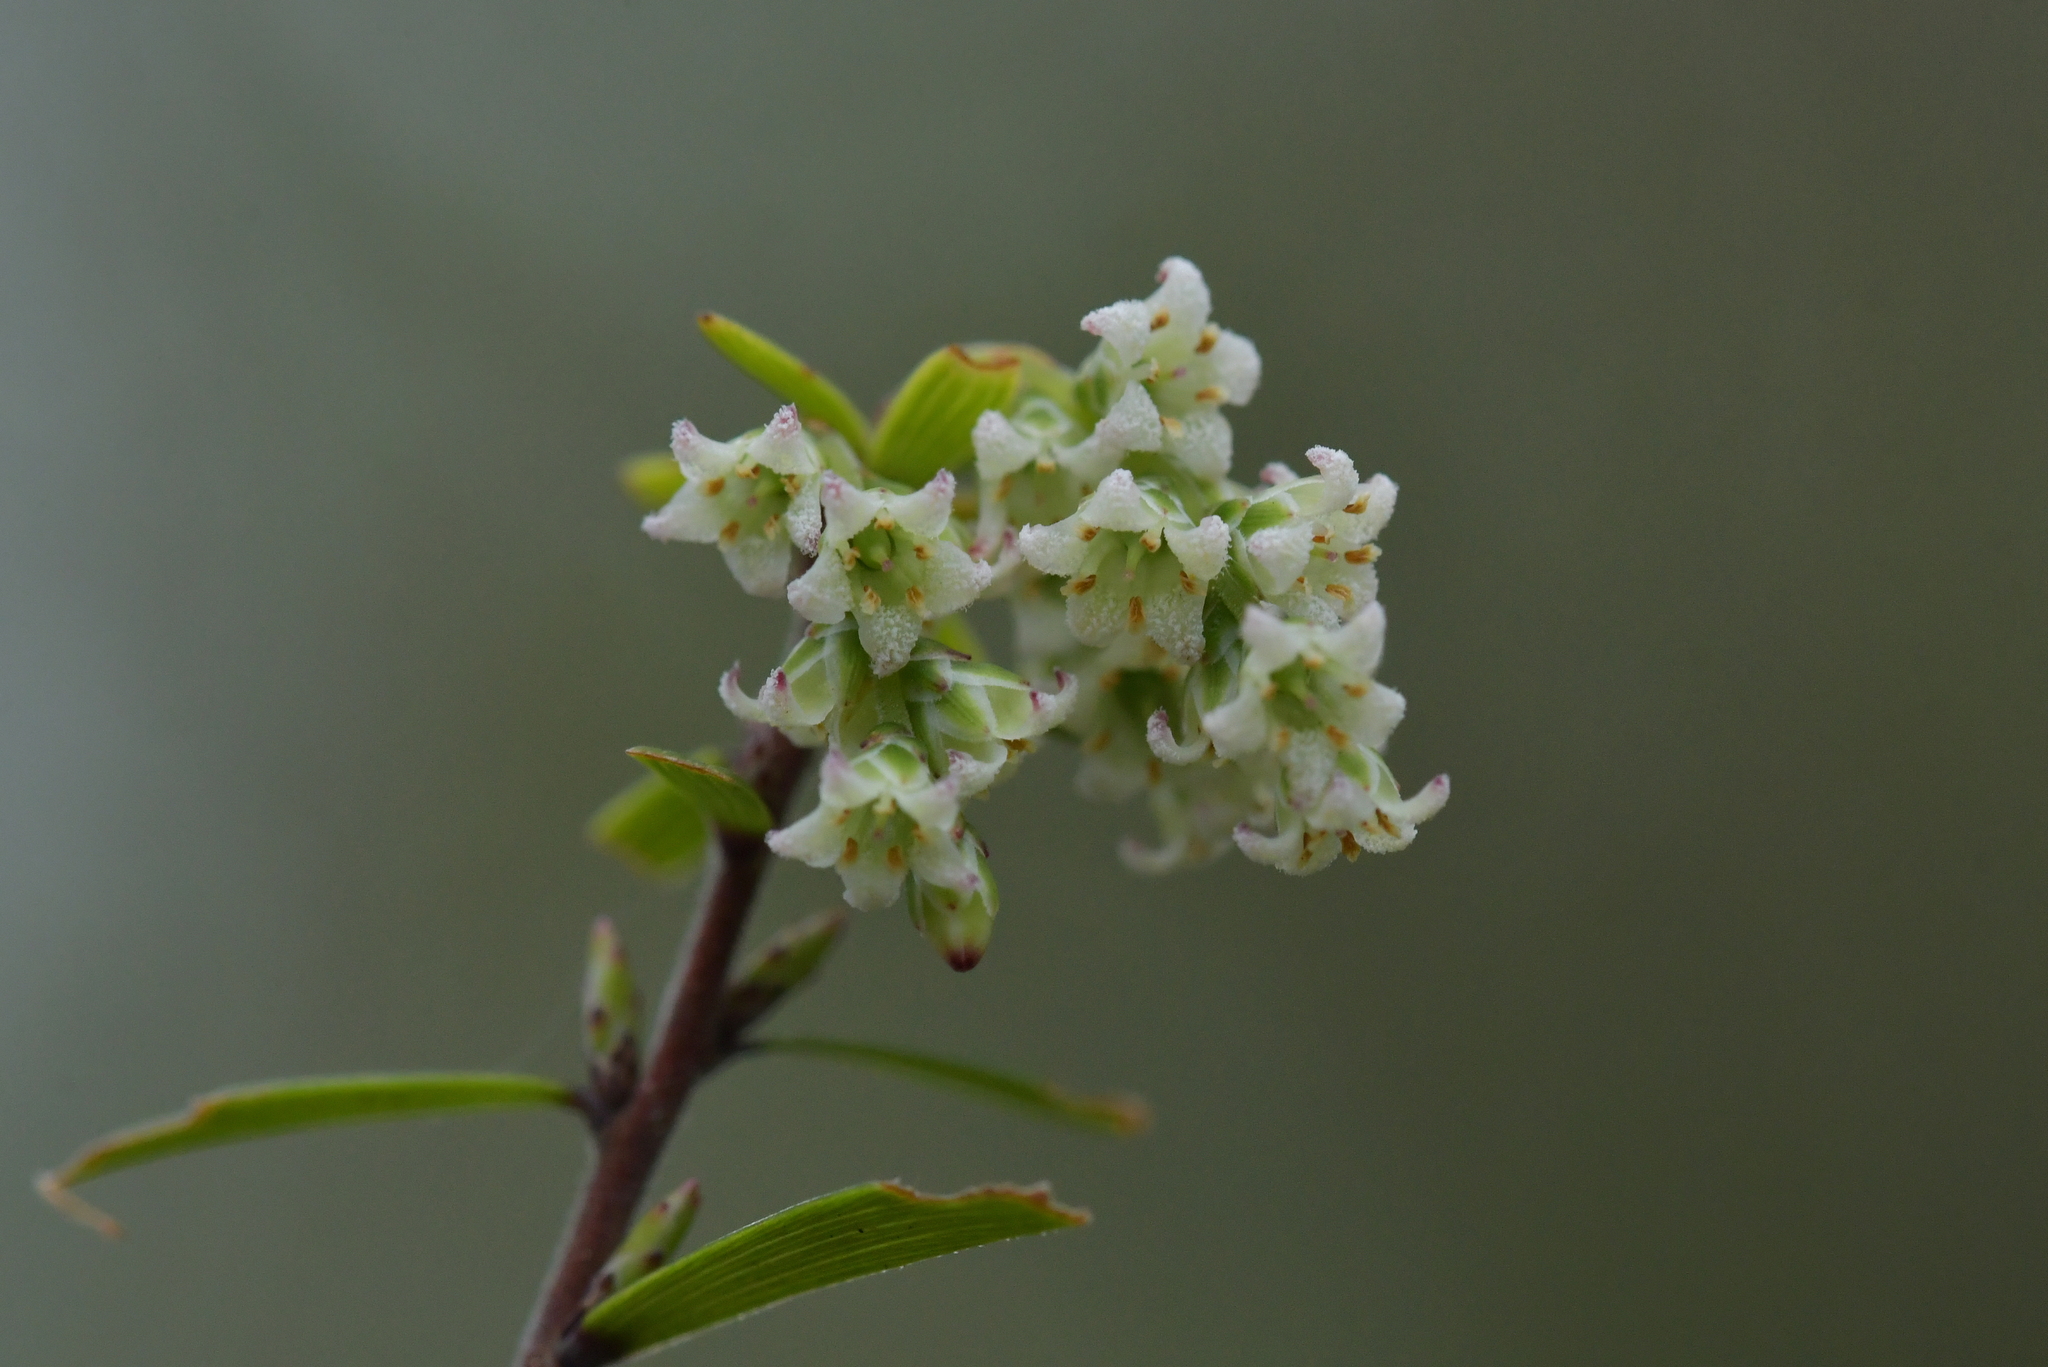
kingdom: Plantae
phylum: Tracheophyta
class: Magnoliopsida
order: Ericales
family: Ericaceae
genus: Leucopogon
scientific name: Leucopogon fasciculatus
